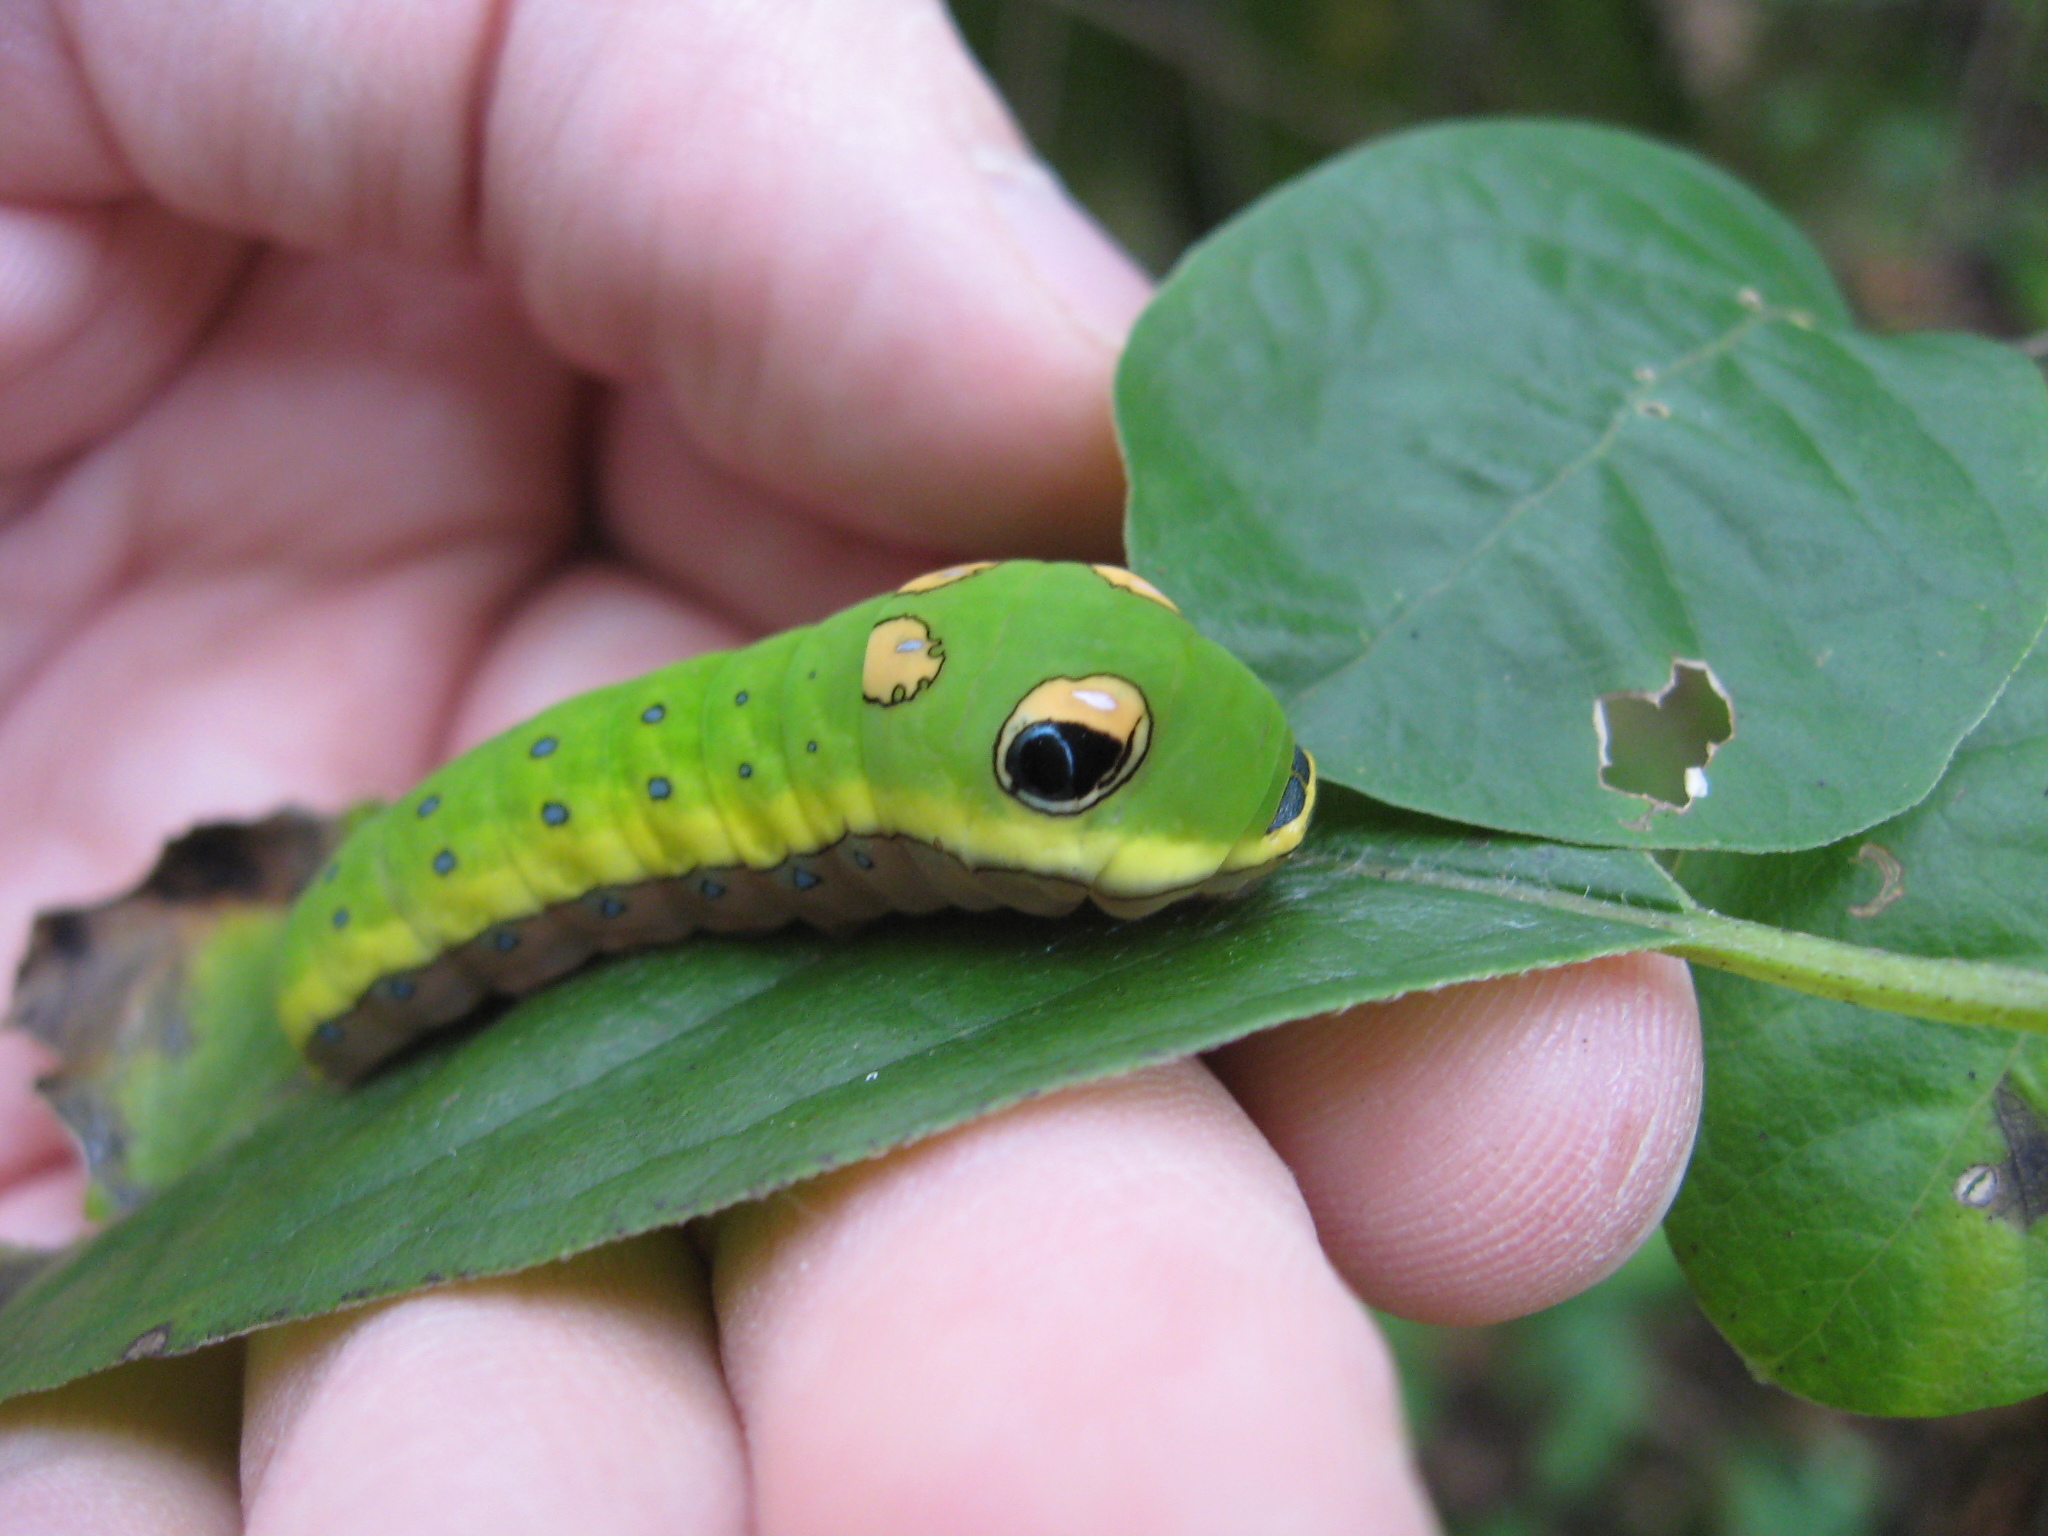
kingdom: Animalia
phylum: Arthropoda
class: Insecta
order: Lepidoptera
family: Papilionidae
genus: Papilio
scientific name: Papilio troilus
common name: Spicebush swallowtail
